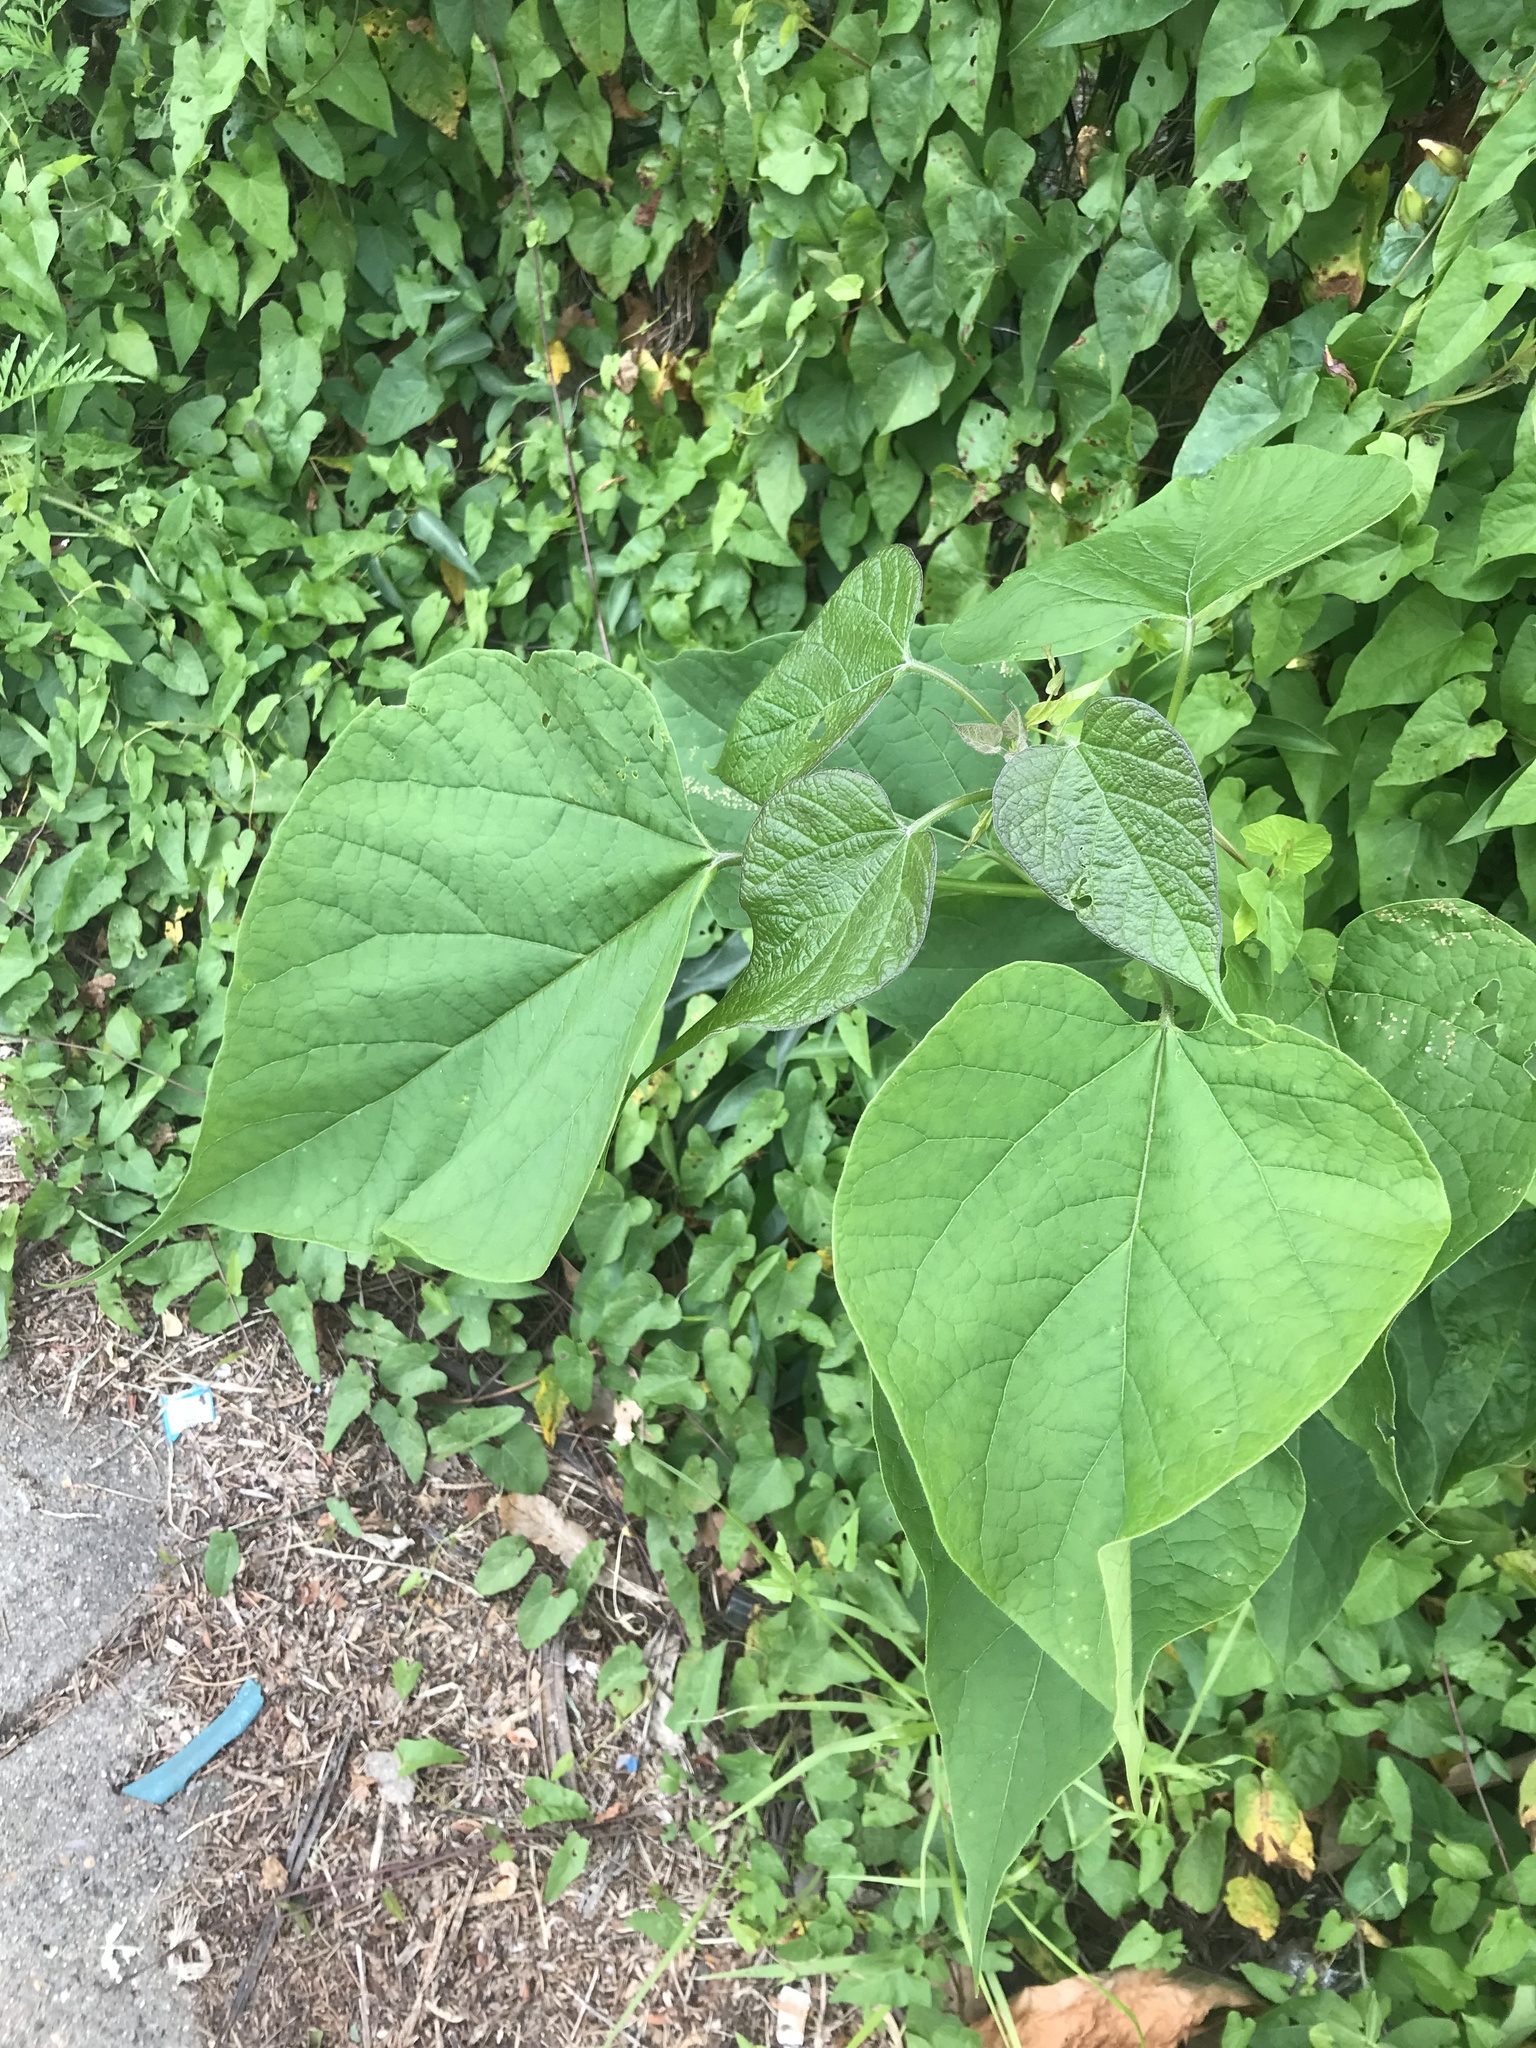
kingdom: Plantae
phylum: Tracheophyta
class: Magnoliopsida
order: Lamiales
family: Bignoniaceae
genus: Catalpa
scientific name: Catalpa speciosa
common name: Northern catalpa
